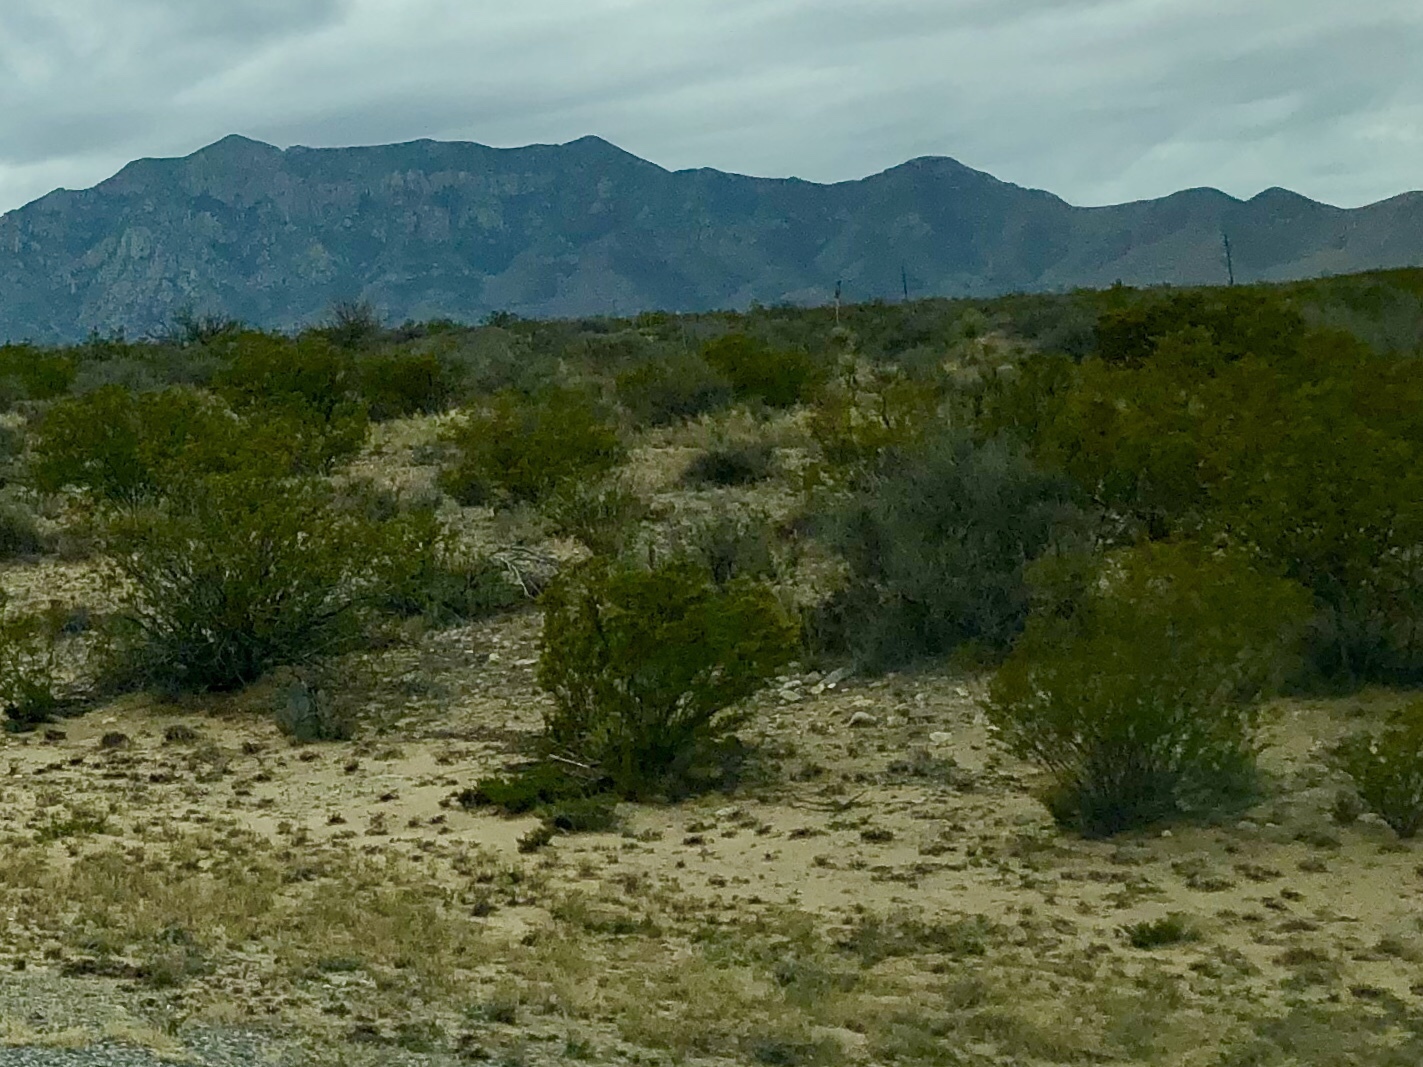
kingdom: Plantae
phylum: Tracheophyta
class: Magnoliopsida
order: Zygophyllales
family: Zygophyllaceae
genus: Larrea
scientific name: Larrea tridentata
